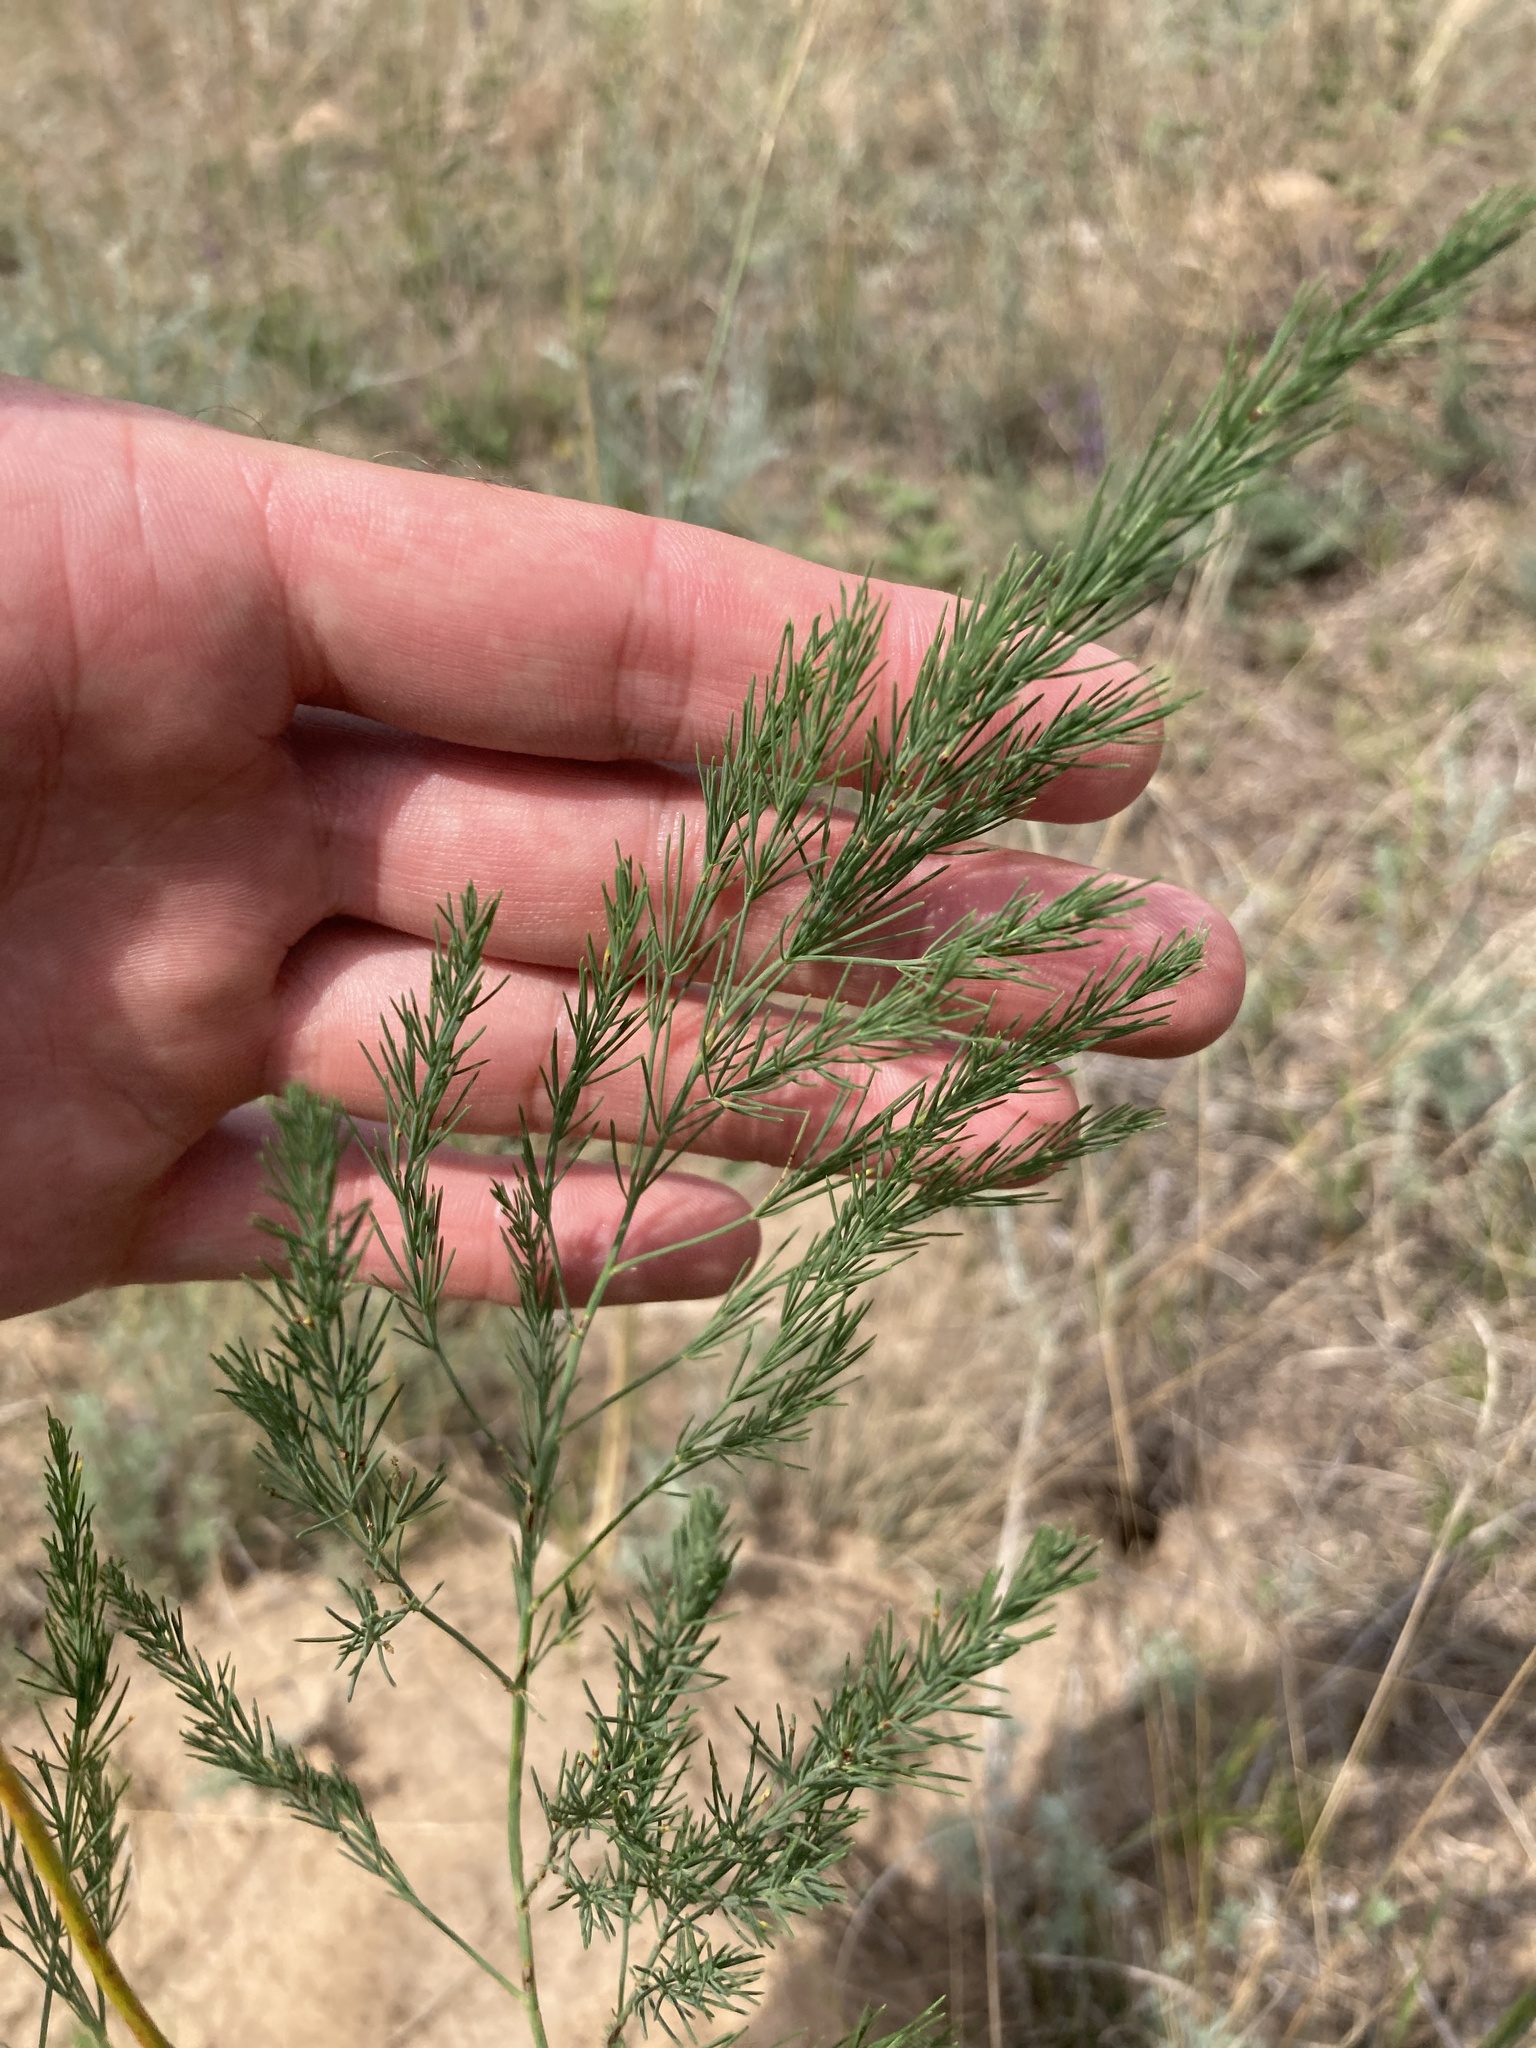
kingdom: Plantae
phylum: Tracheophyta
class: Liliopsida
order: Asparagales
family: Asparagaceae
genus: Asparagus
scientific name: Asparagus officinalis
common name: Garden asparagus
